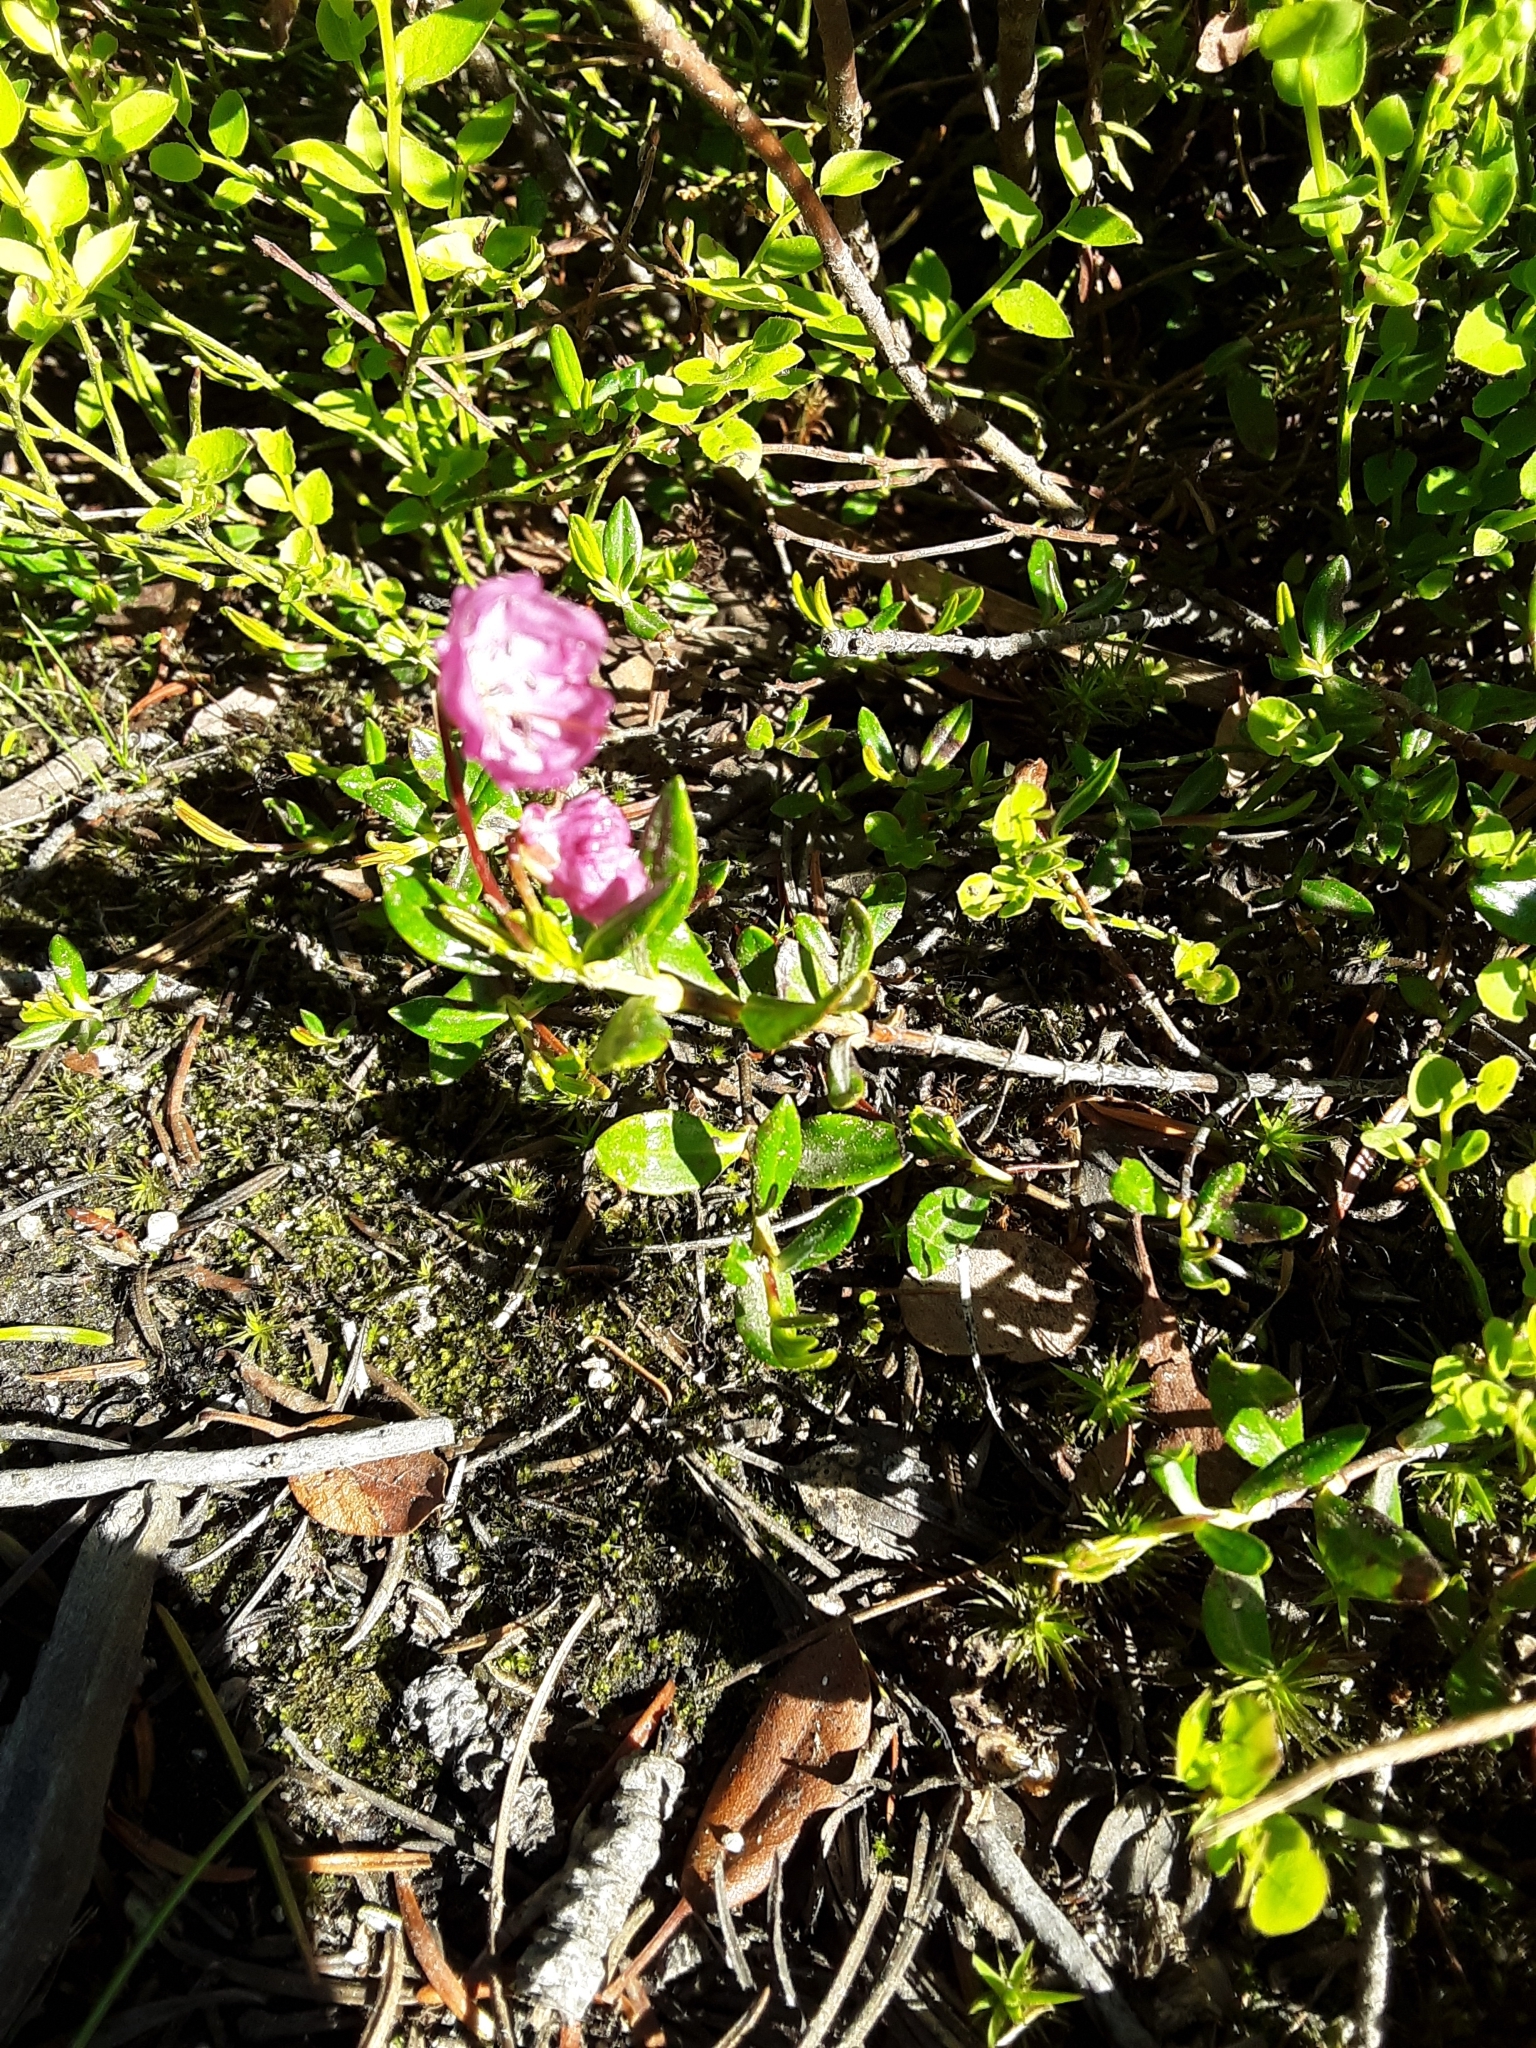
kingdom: Plantae
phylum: Tracheophyta
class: Magnoliopsida
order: Ericales
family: Ericaceae
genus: Kalmia
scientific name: Kalmia microphylla
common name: Alpine bog laurel
